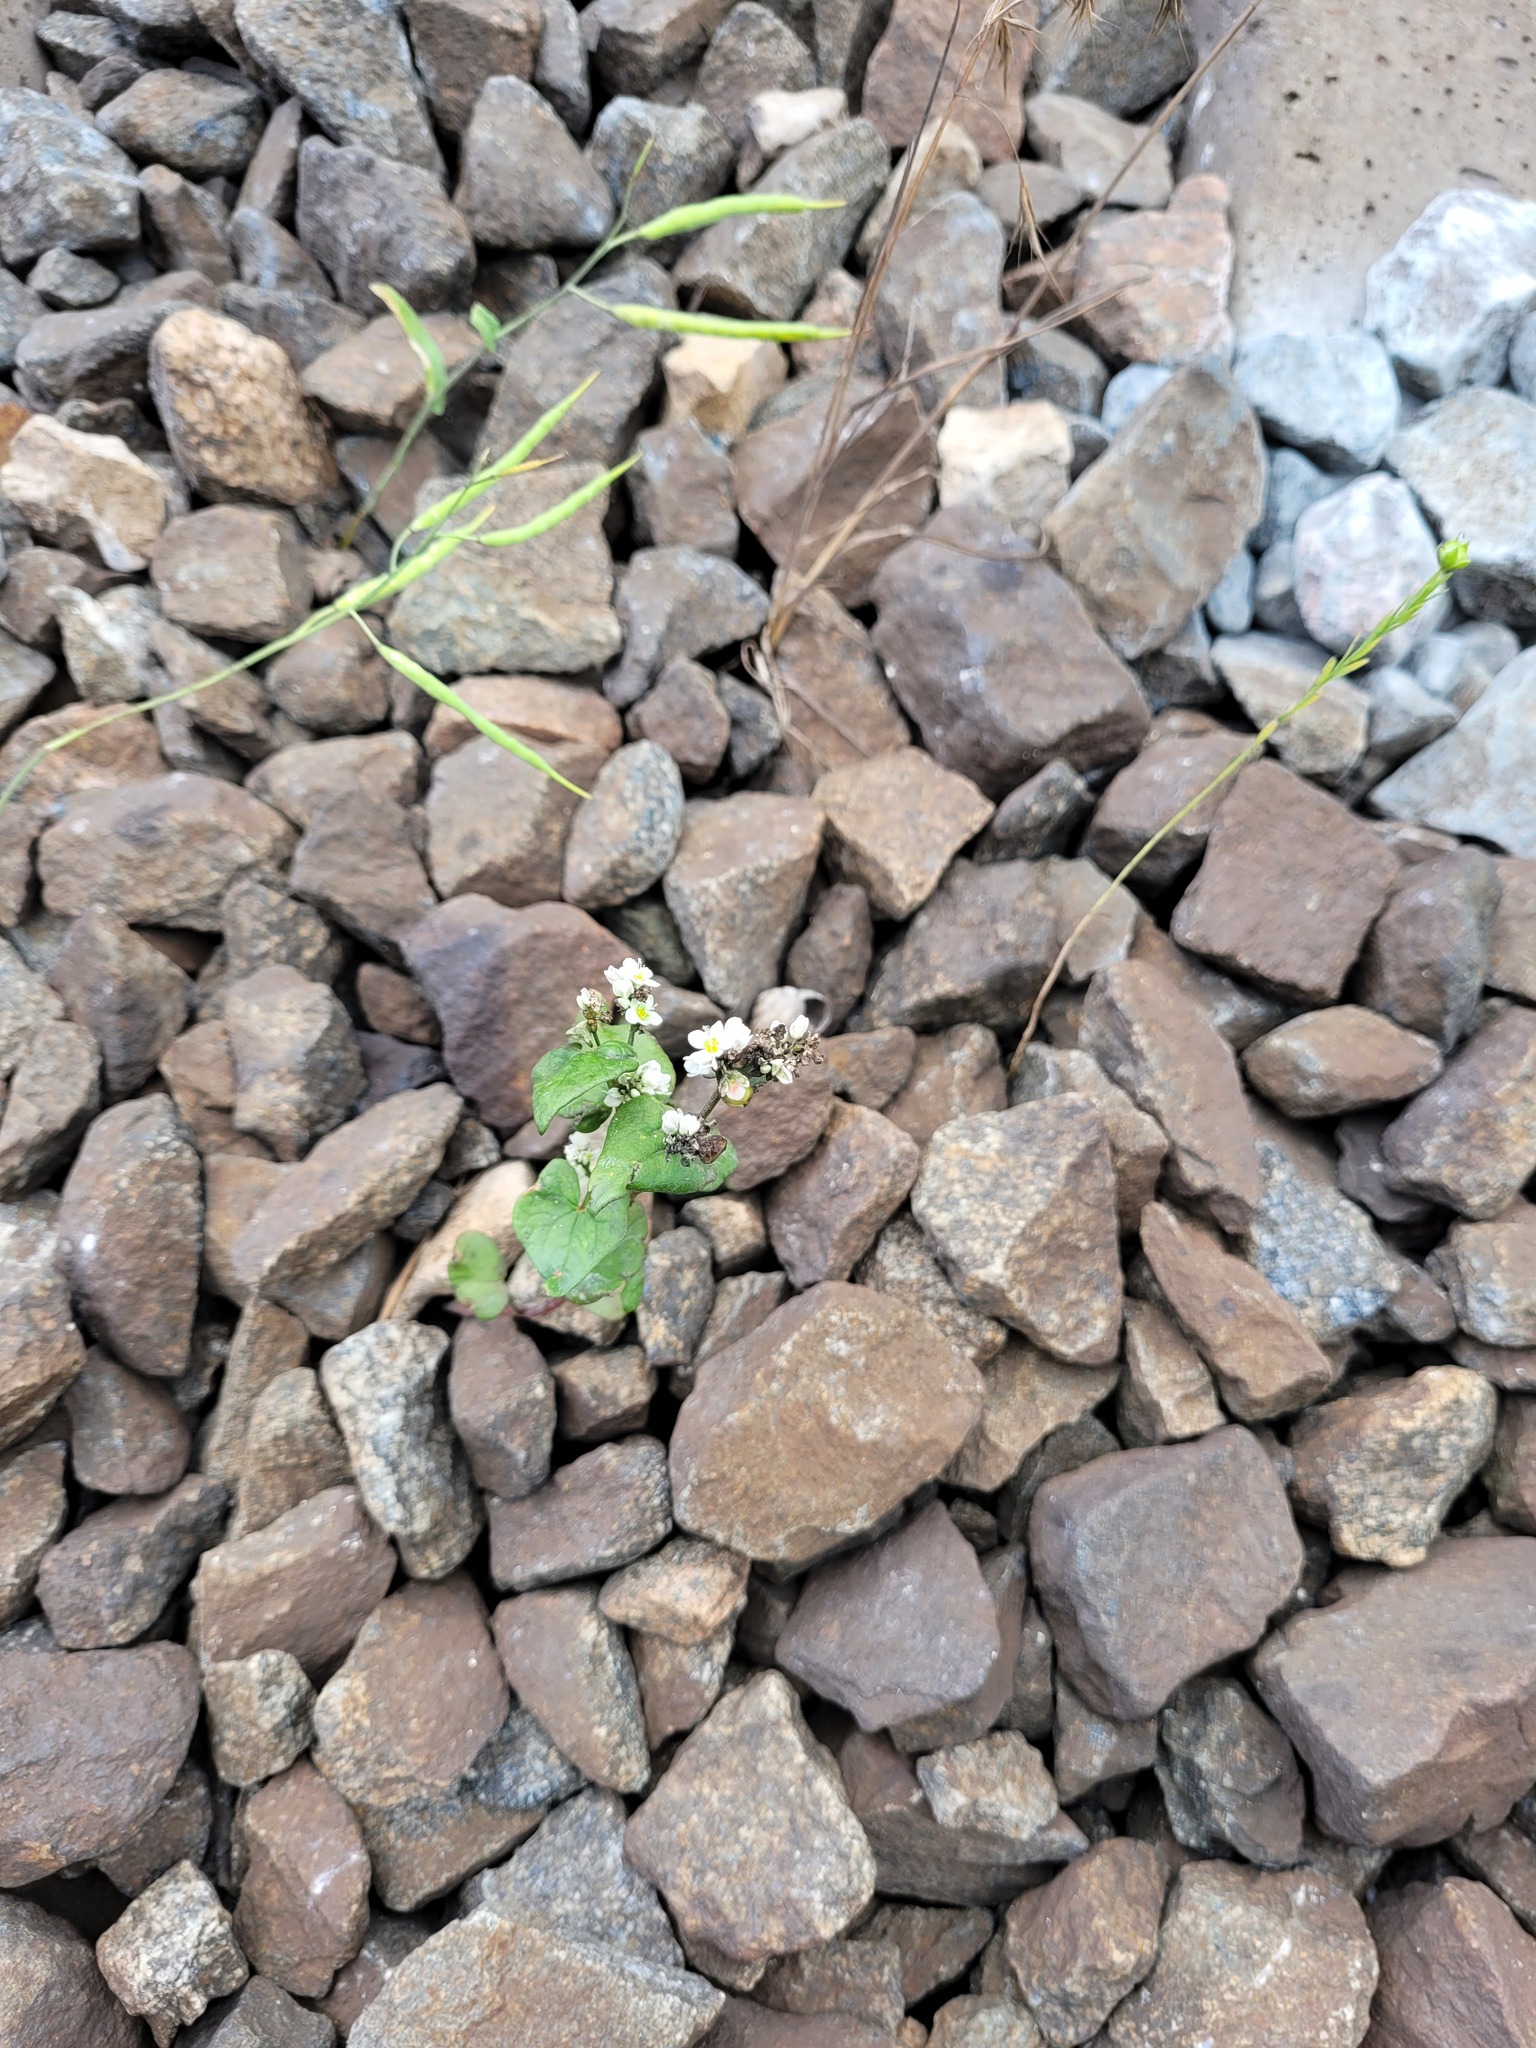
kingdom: Plantae
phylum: Tracheophyta
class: Magnoliopsida
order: Caryophyllales
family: Polygonaceae
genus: Fagopyrum
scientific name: Fagopyrum esculentum
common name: Buckwheat
